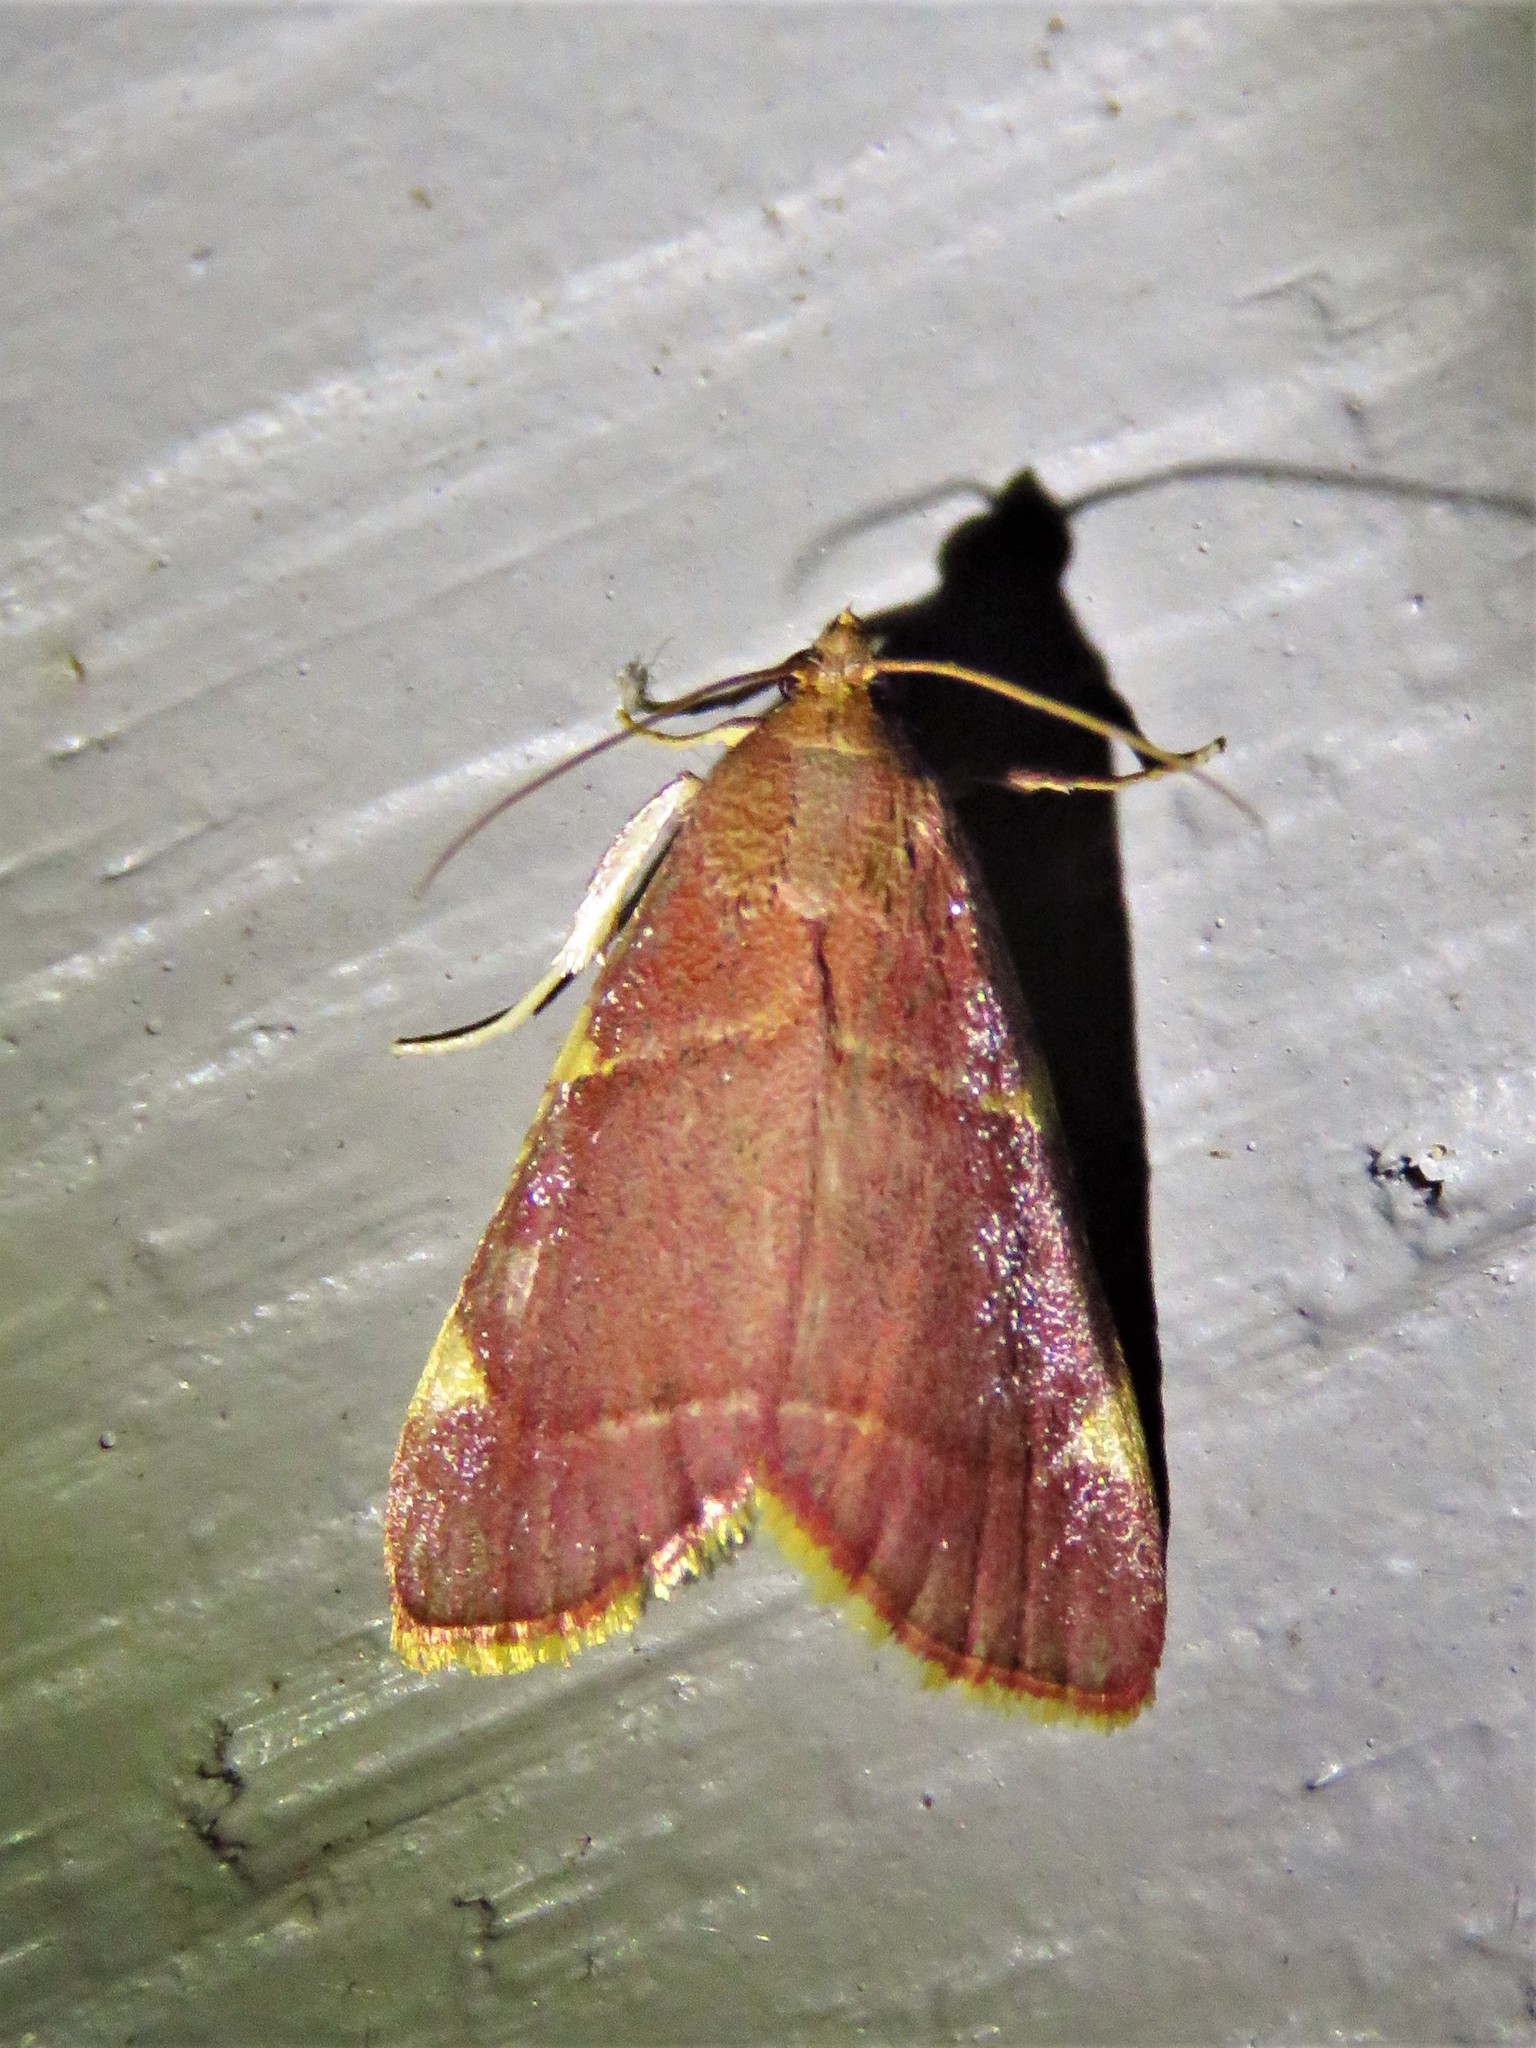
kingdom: Animalia
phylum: Arthropoda
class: Insecta
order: Lepidoptera
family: Pyralidae
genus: Hypsopygia
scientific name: Hypsopygia olinalis
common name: Yellow-fringed dolichomia moth
